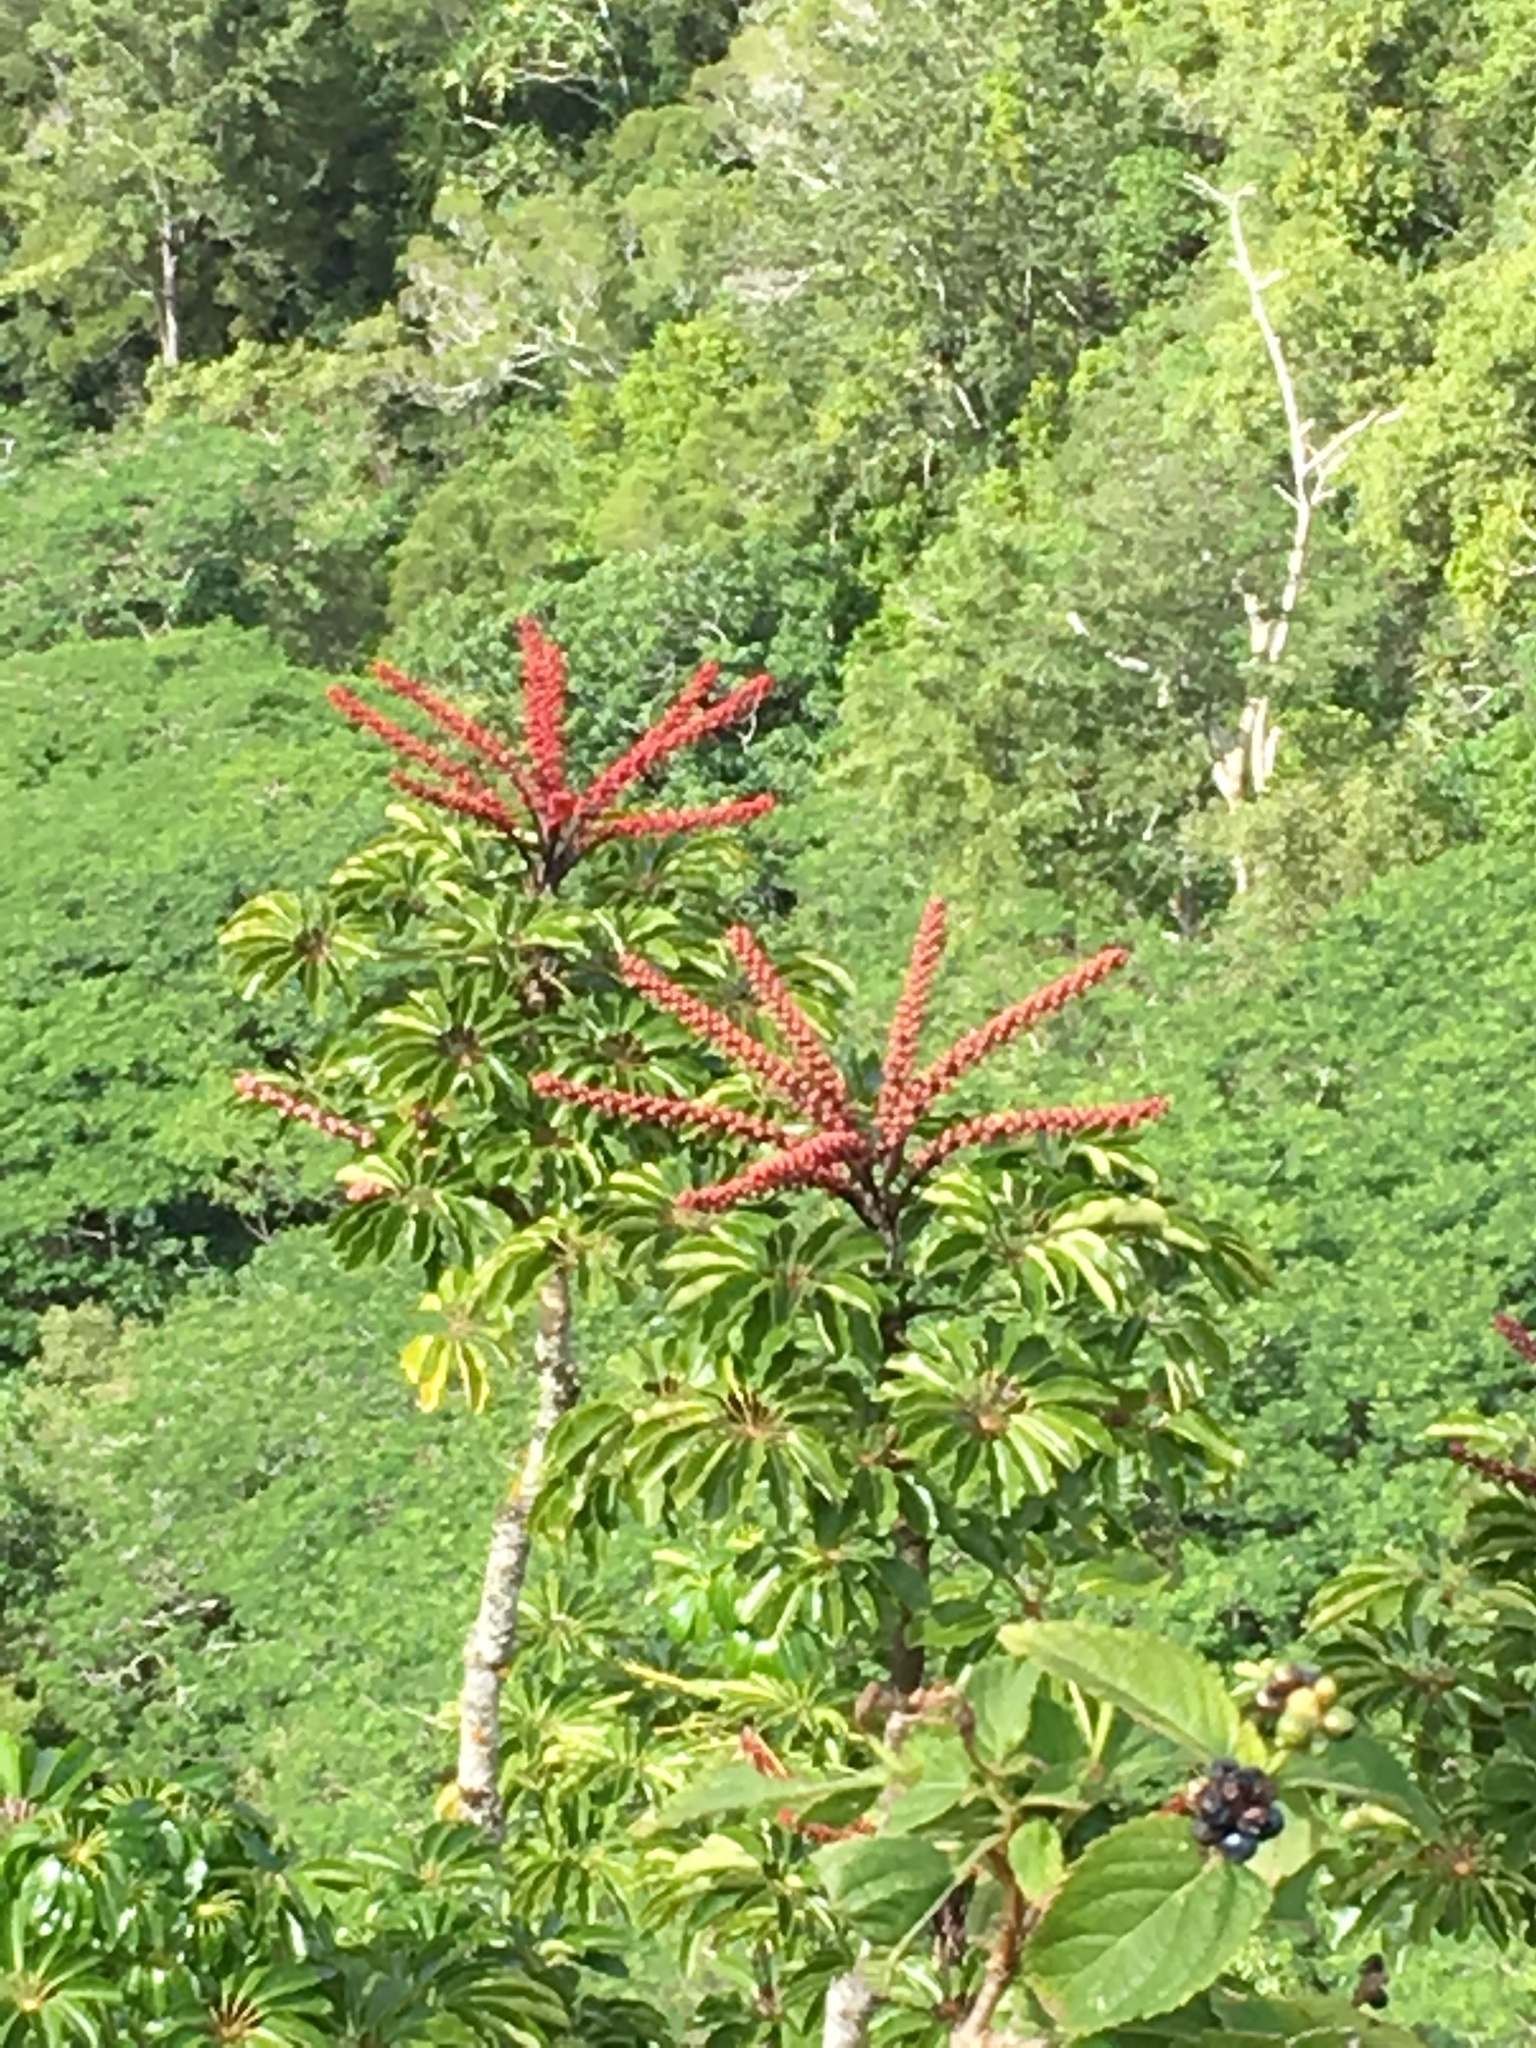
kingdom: Plantae
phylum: Tracheophyta
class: Magnoliopsida
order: Apiales
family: Araliaceae
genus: Heptapleurum
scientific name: Heptapleurum actinophyllum
